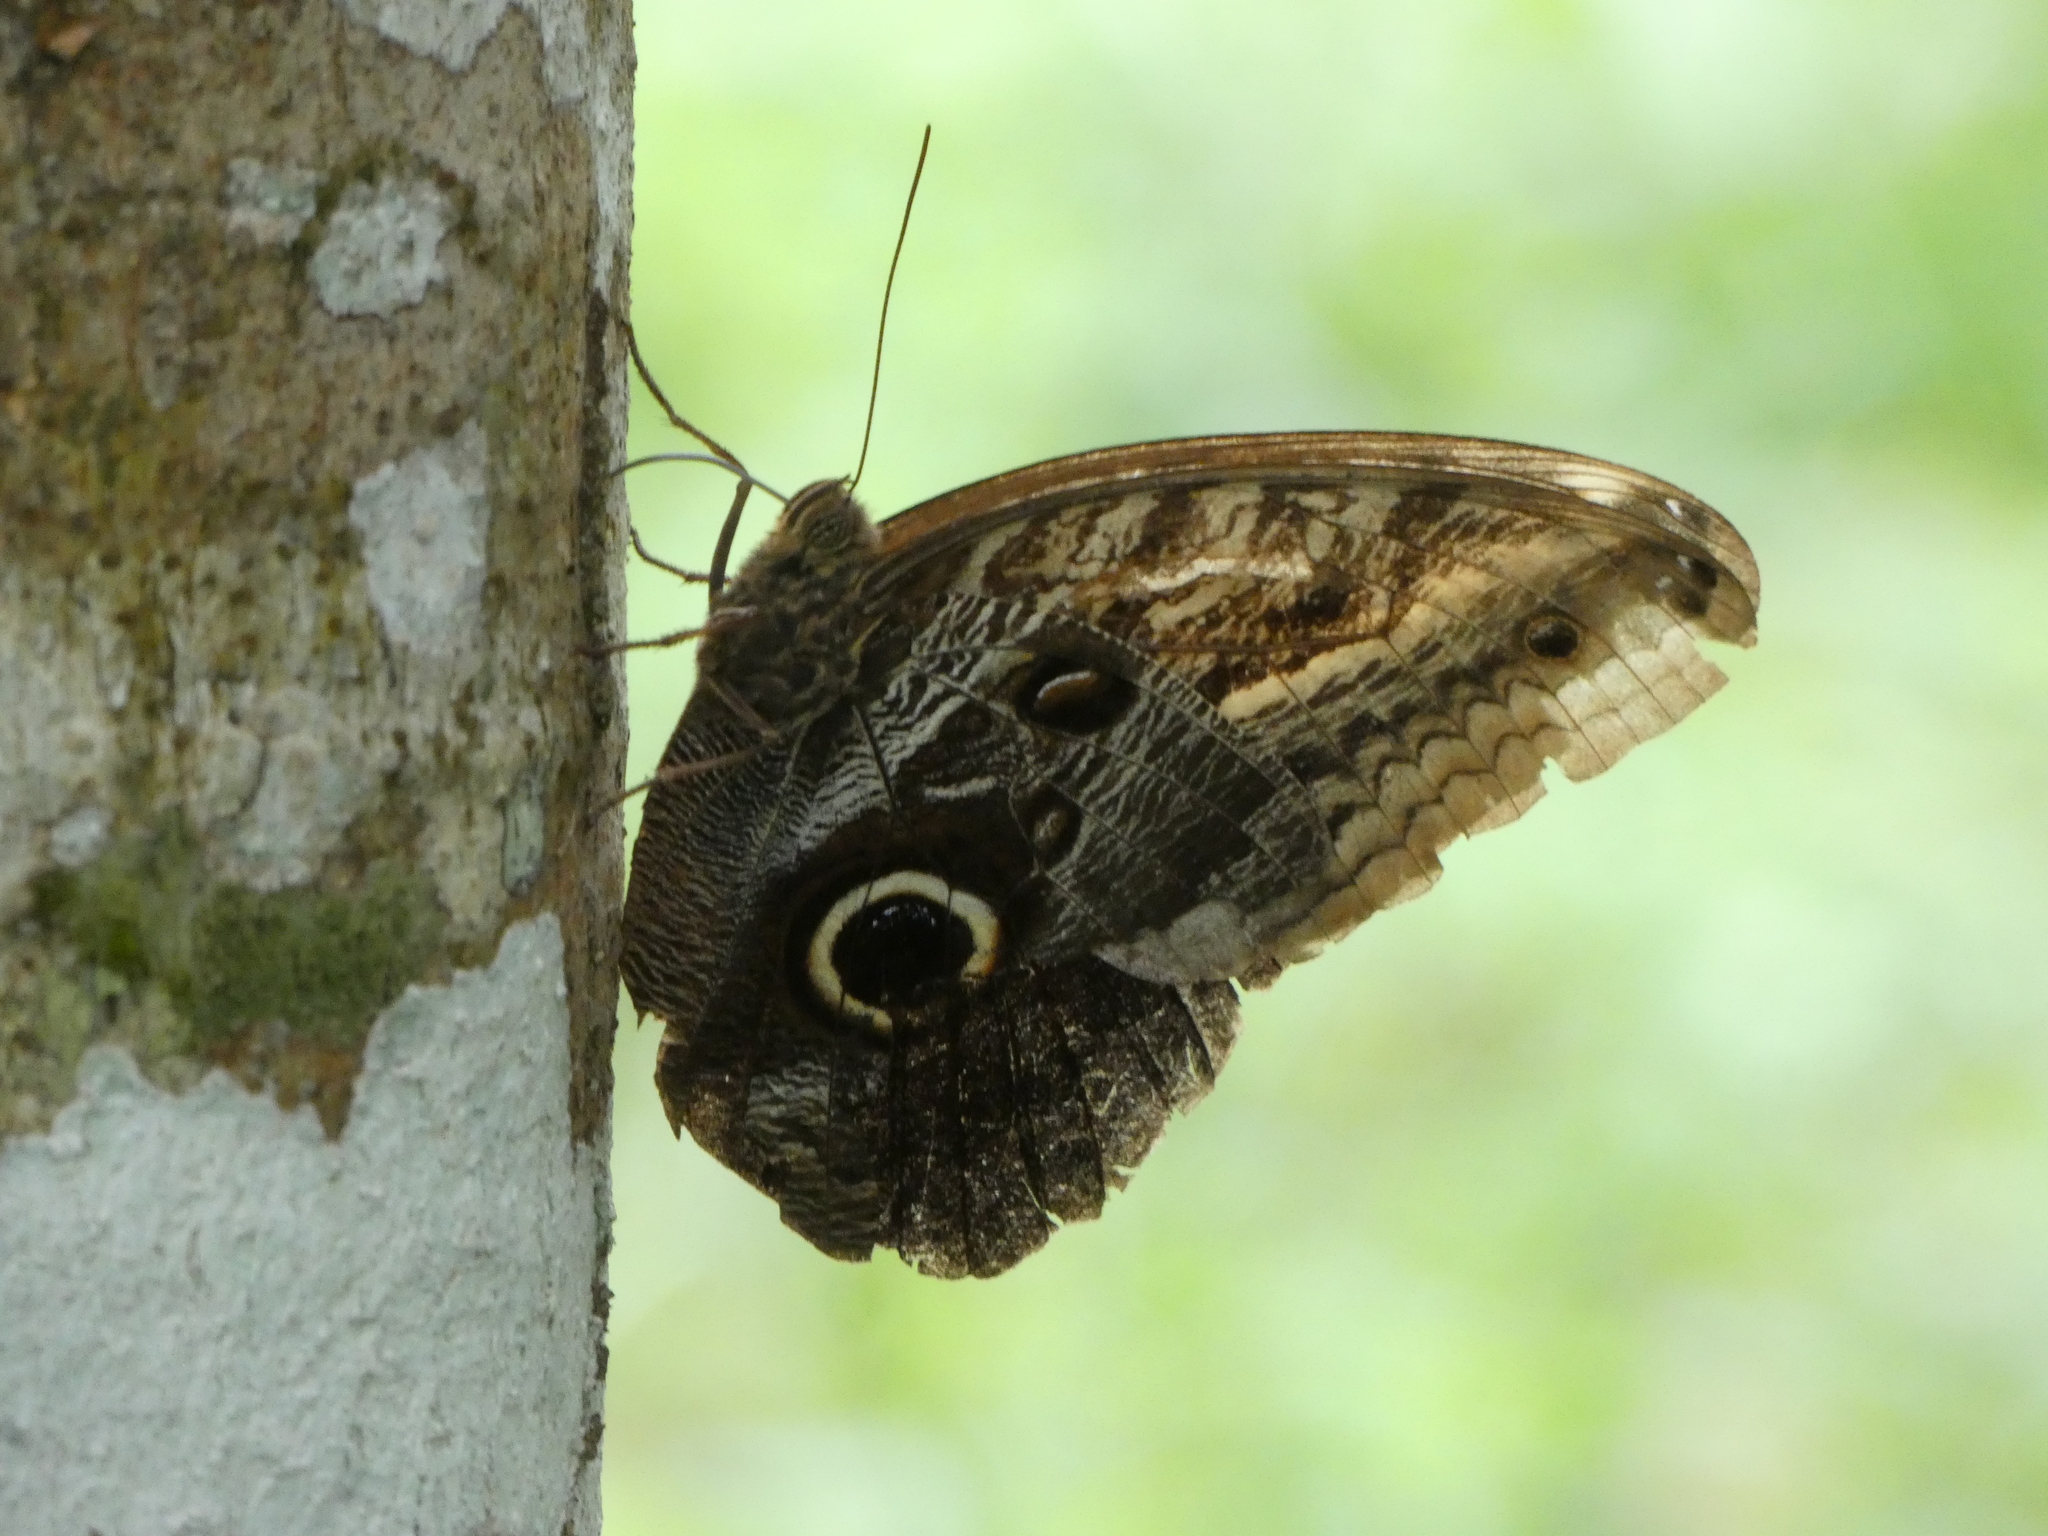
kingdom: Animalia
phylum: Arthropoda
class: Insecta
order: Lepidoptera
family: Nymphalidae
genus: Caligo
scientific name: Caligo teucer
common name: Teucer owl butterfly
